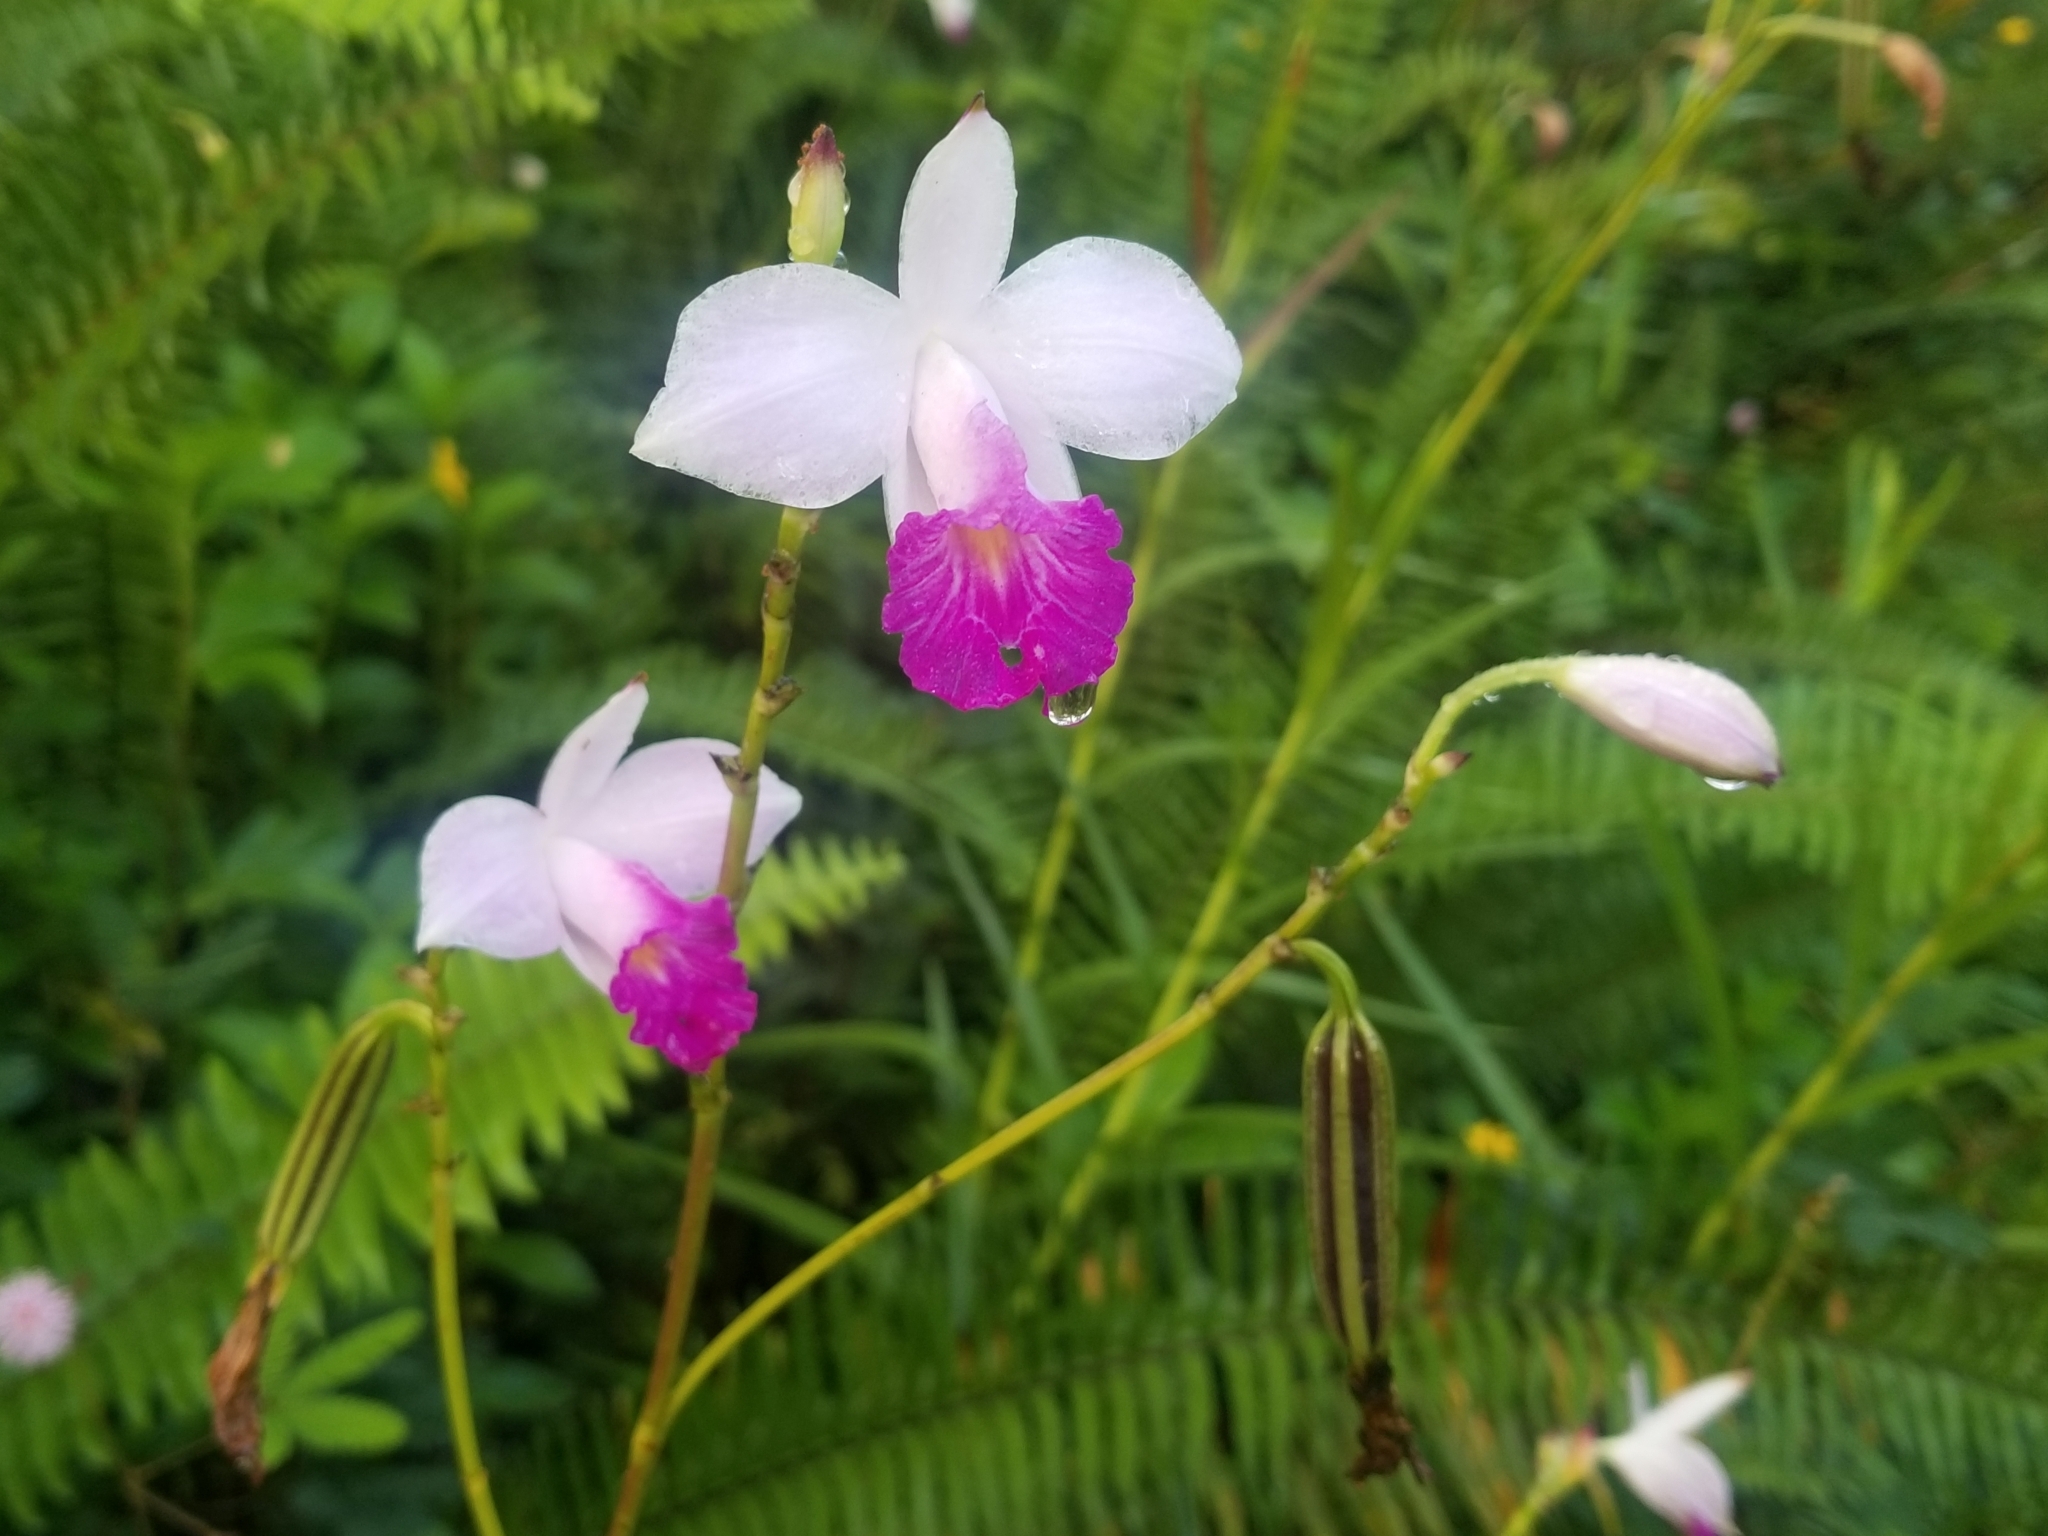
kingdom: Plantae
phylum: Tracheophyta
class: Liliopsida
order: Asparagales
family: Orchidaceae
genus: Arundina
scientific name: Arundina graminifolia
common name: Bamboo orchid
